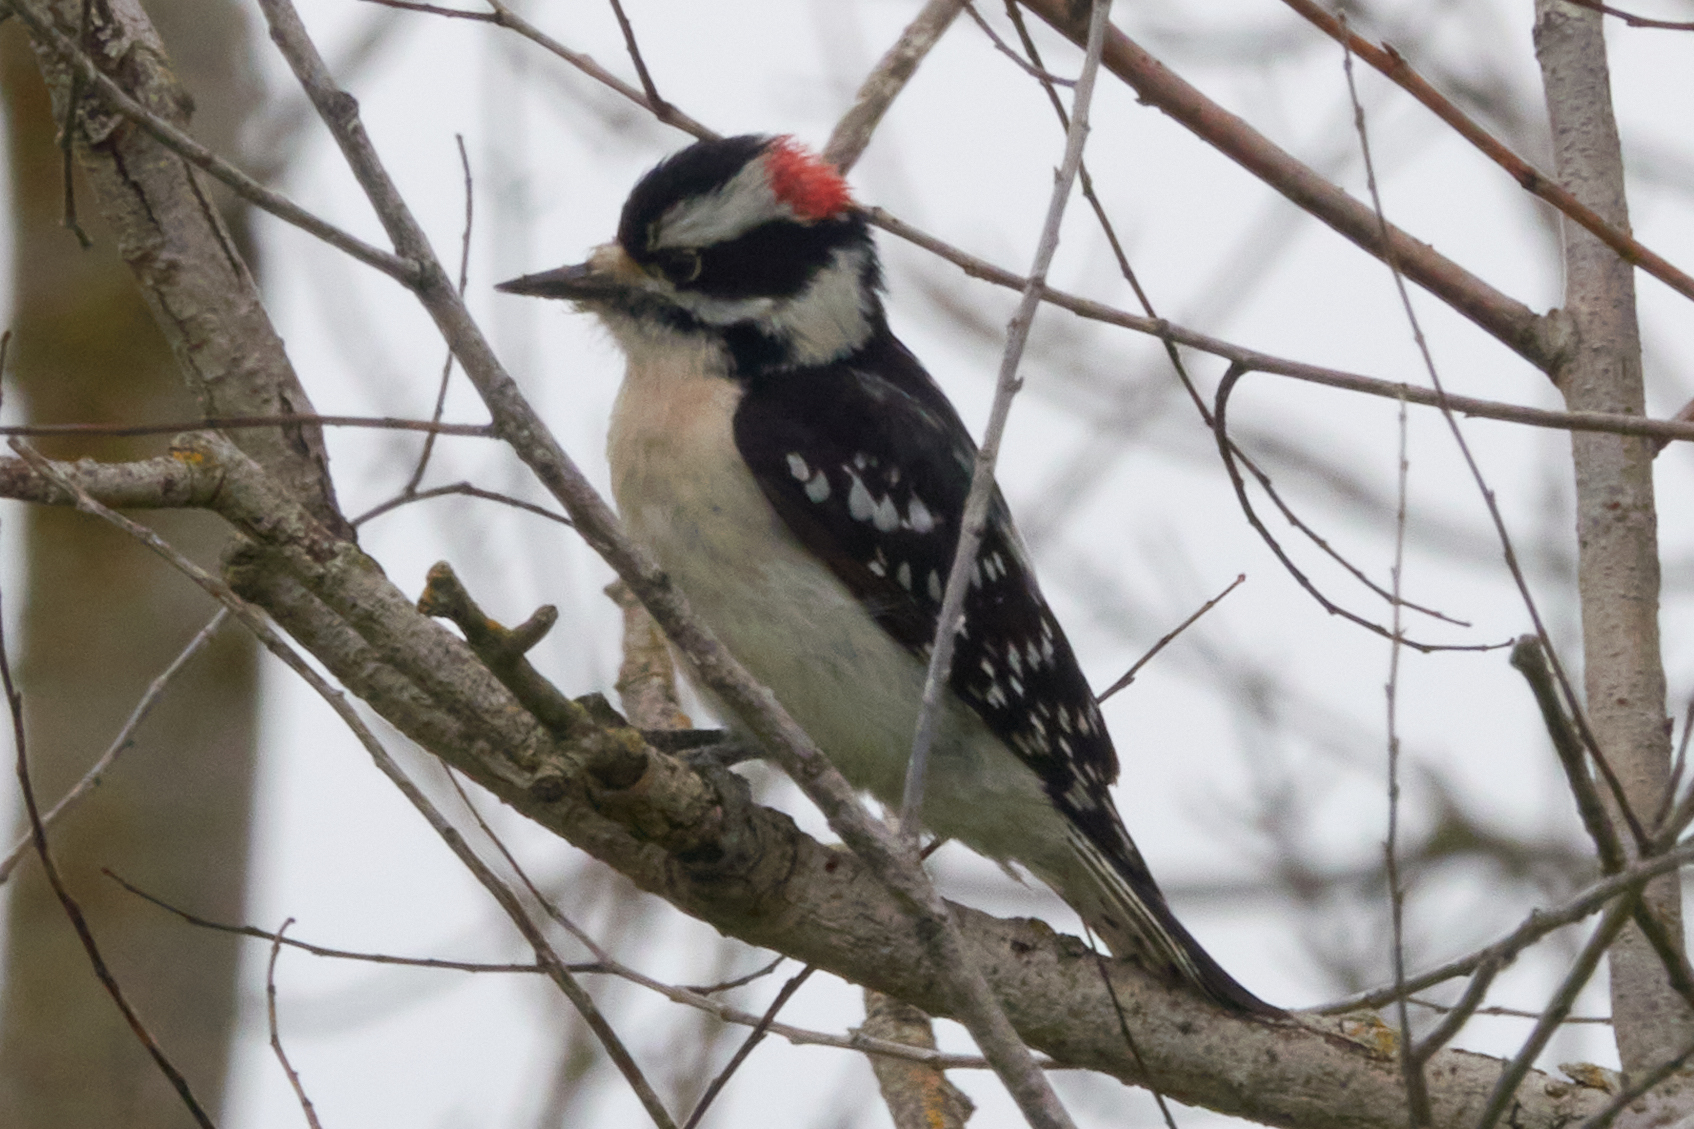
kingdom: Animalia
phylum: Chordata
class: Aves
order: Piciformes
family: Picidae
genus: Dryobates
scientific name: Dryobates pubescens
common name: Downy woodpecker
